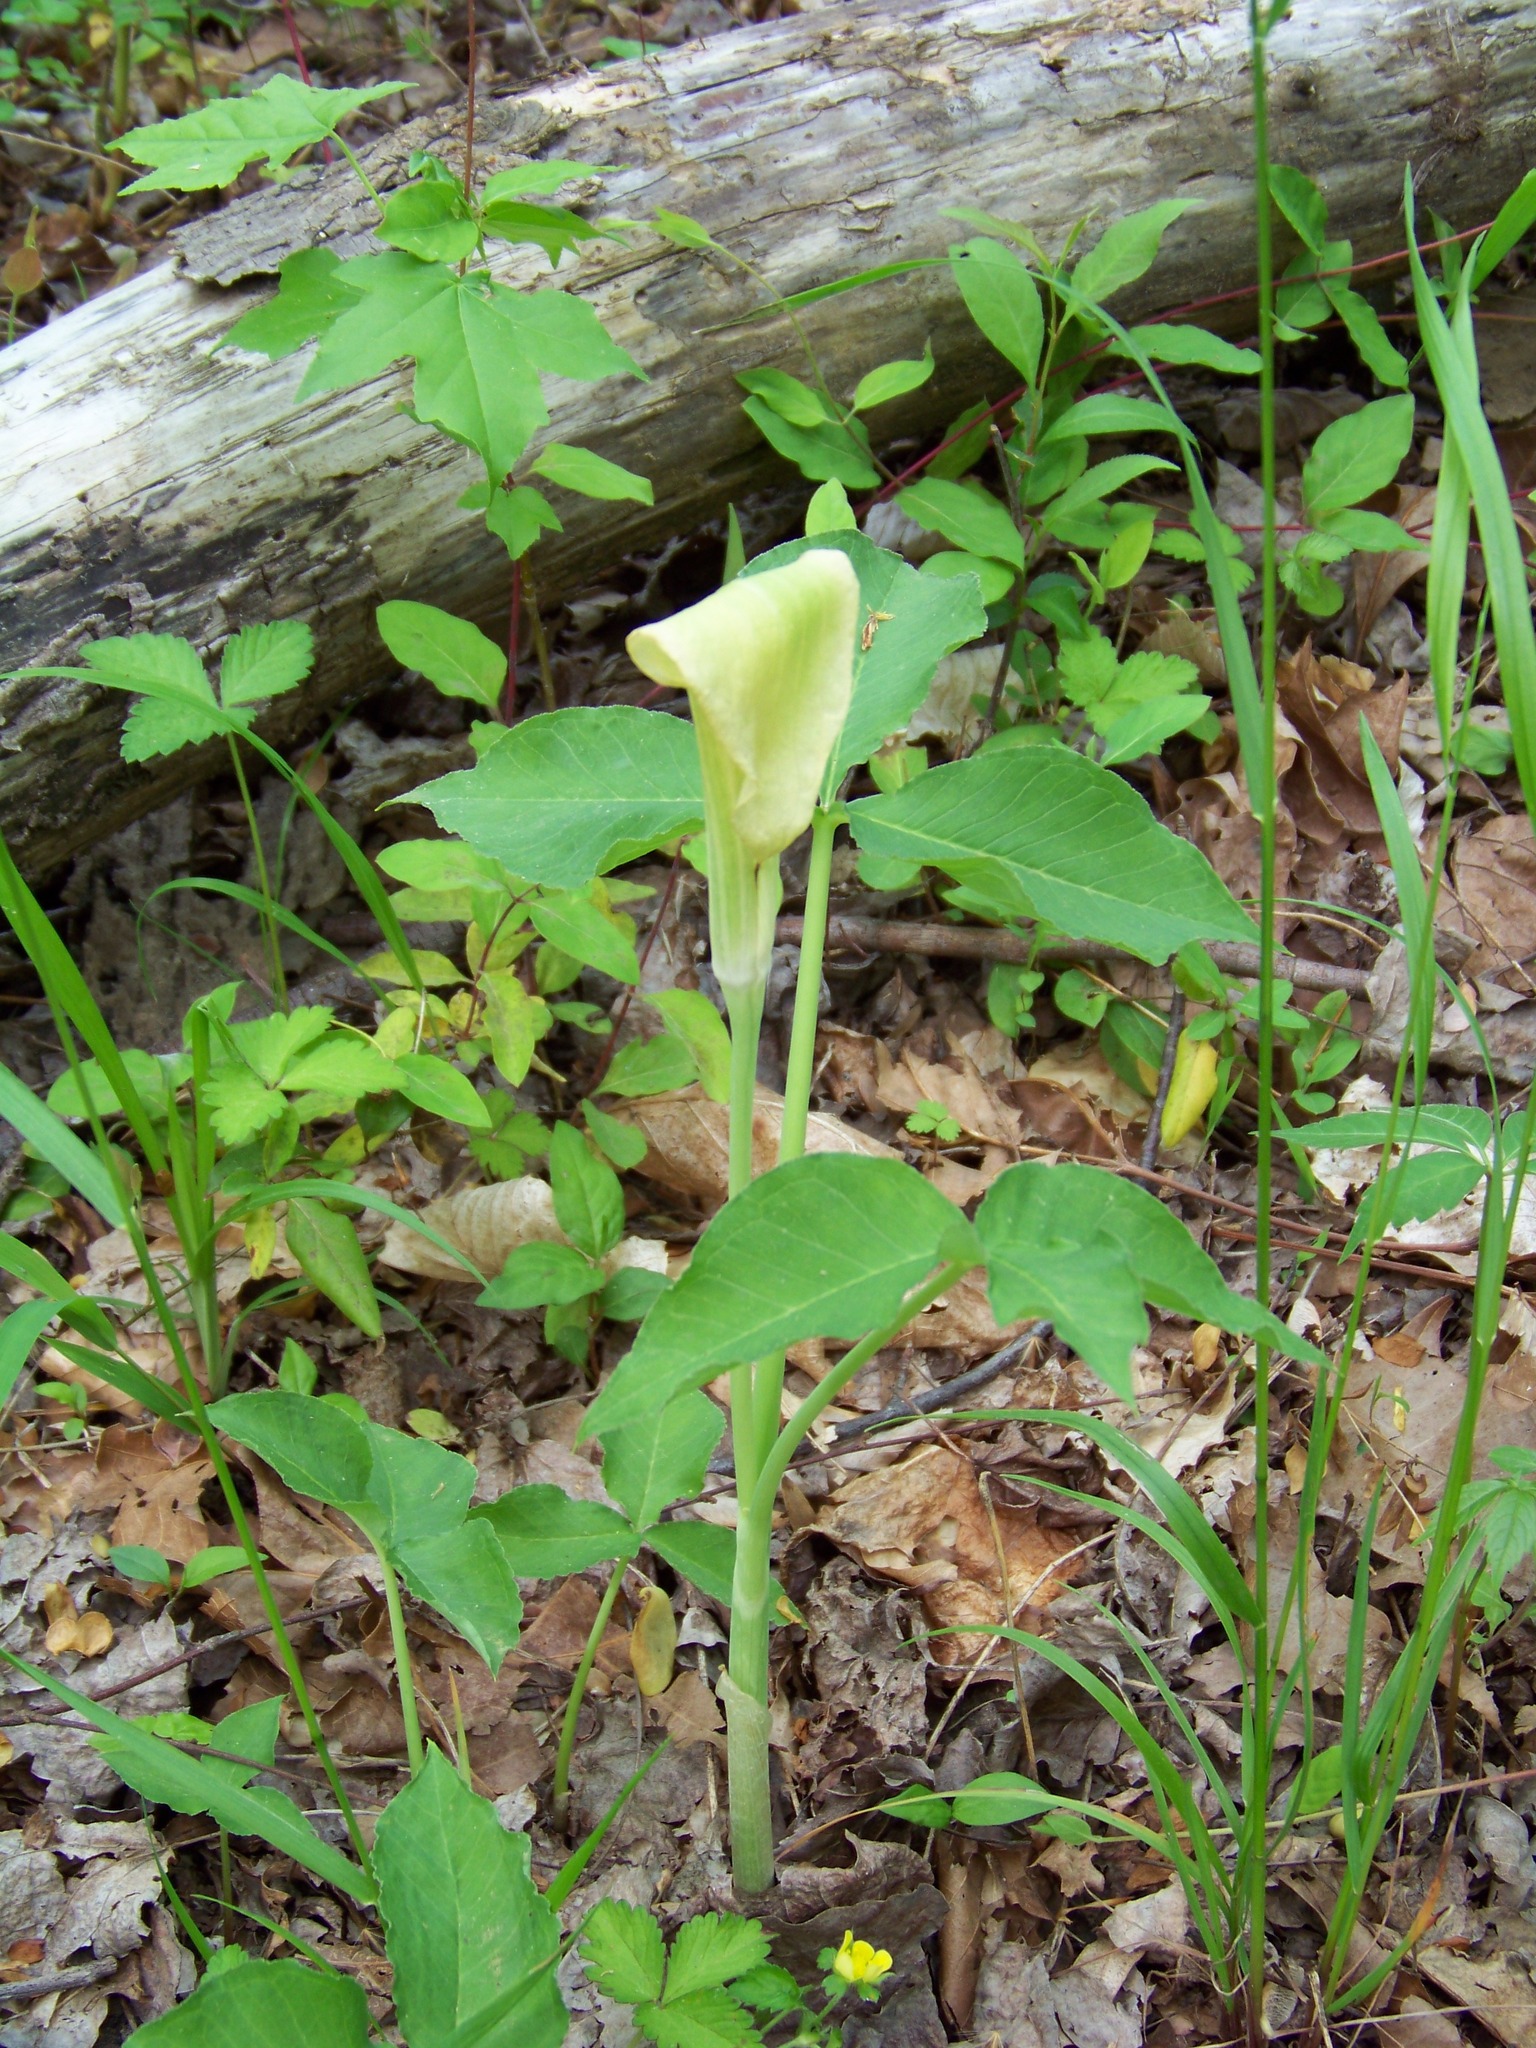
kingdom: Plantae
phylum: Tracheophyta
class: Liliopsida
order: Alismatales
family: Araceae
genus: Arisaema
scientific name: Arisaema triphyllum
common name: Jack-in-the-pulpit
